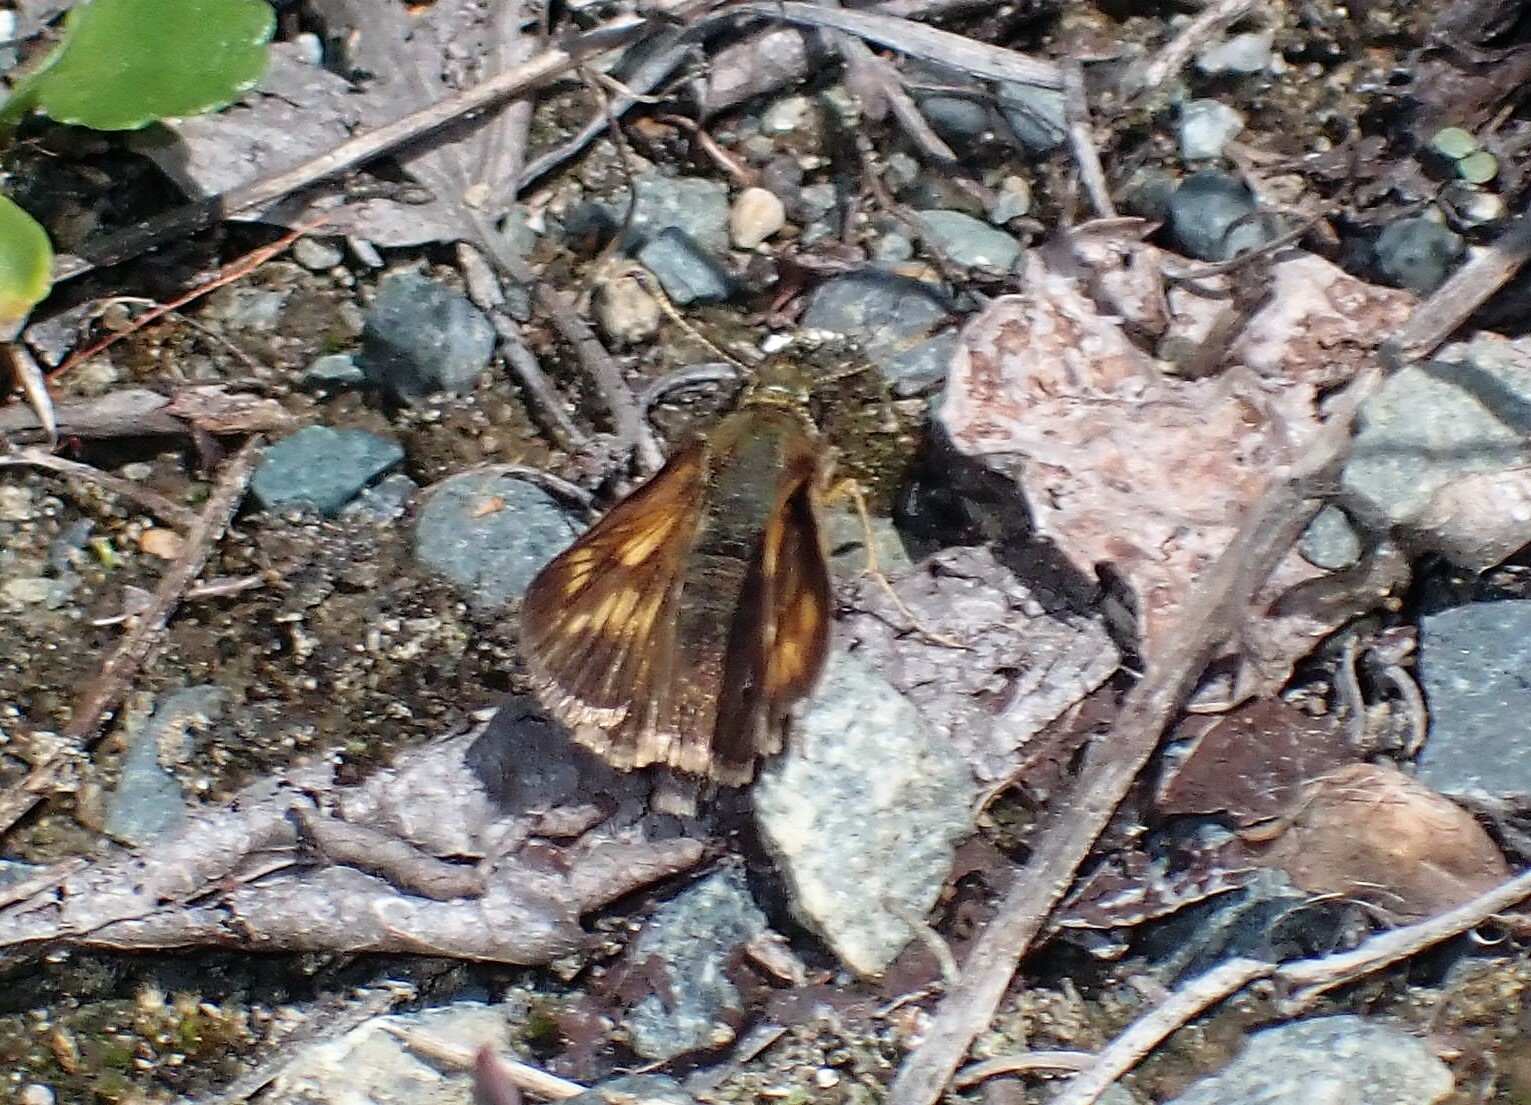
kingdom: Animalia
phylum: Arthropoda
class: Insecta
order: Lepidoptera
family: Hesperiidae
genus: Polites
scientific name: Polites mystic
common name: Long dash
